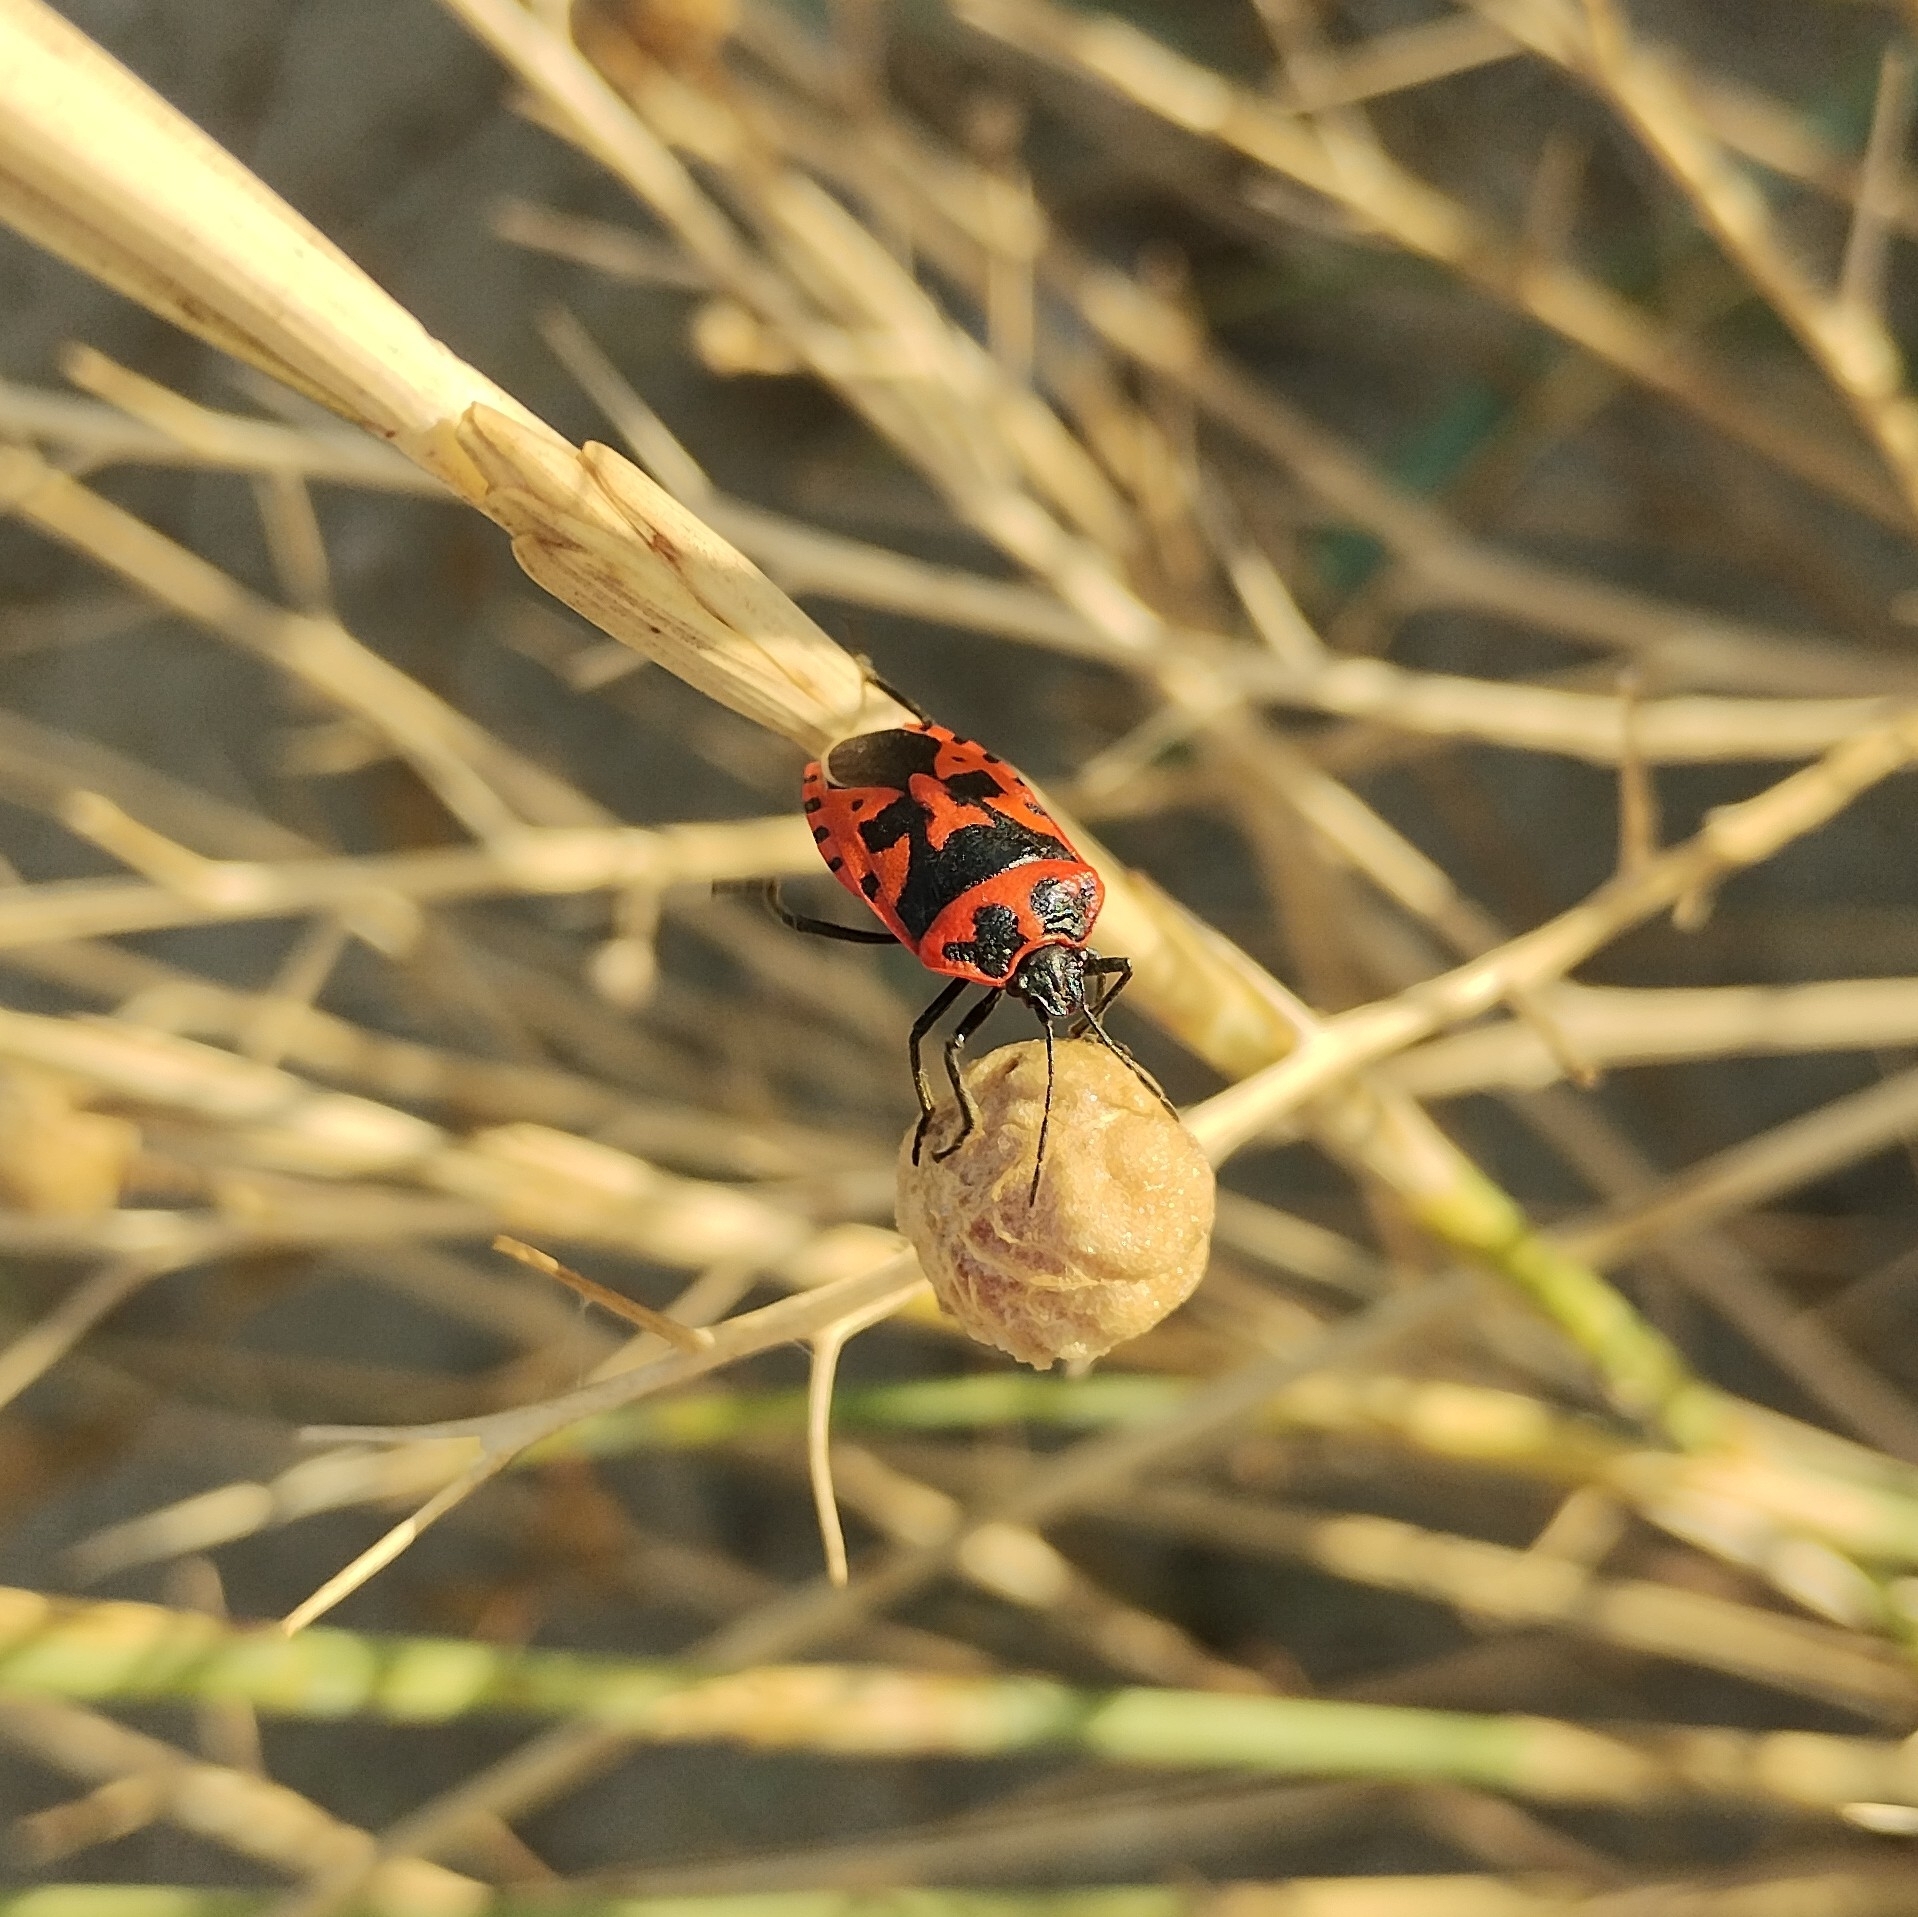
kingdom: Animalia
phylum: Arthropoda
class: Insecta
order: Hemiptera
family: Pentatomidae
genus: Eurydema
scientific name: Eurydema spectabilis
